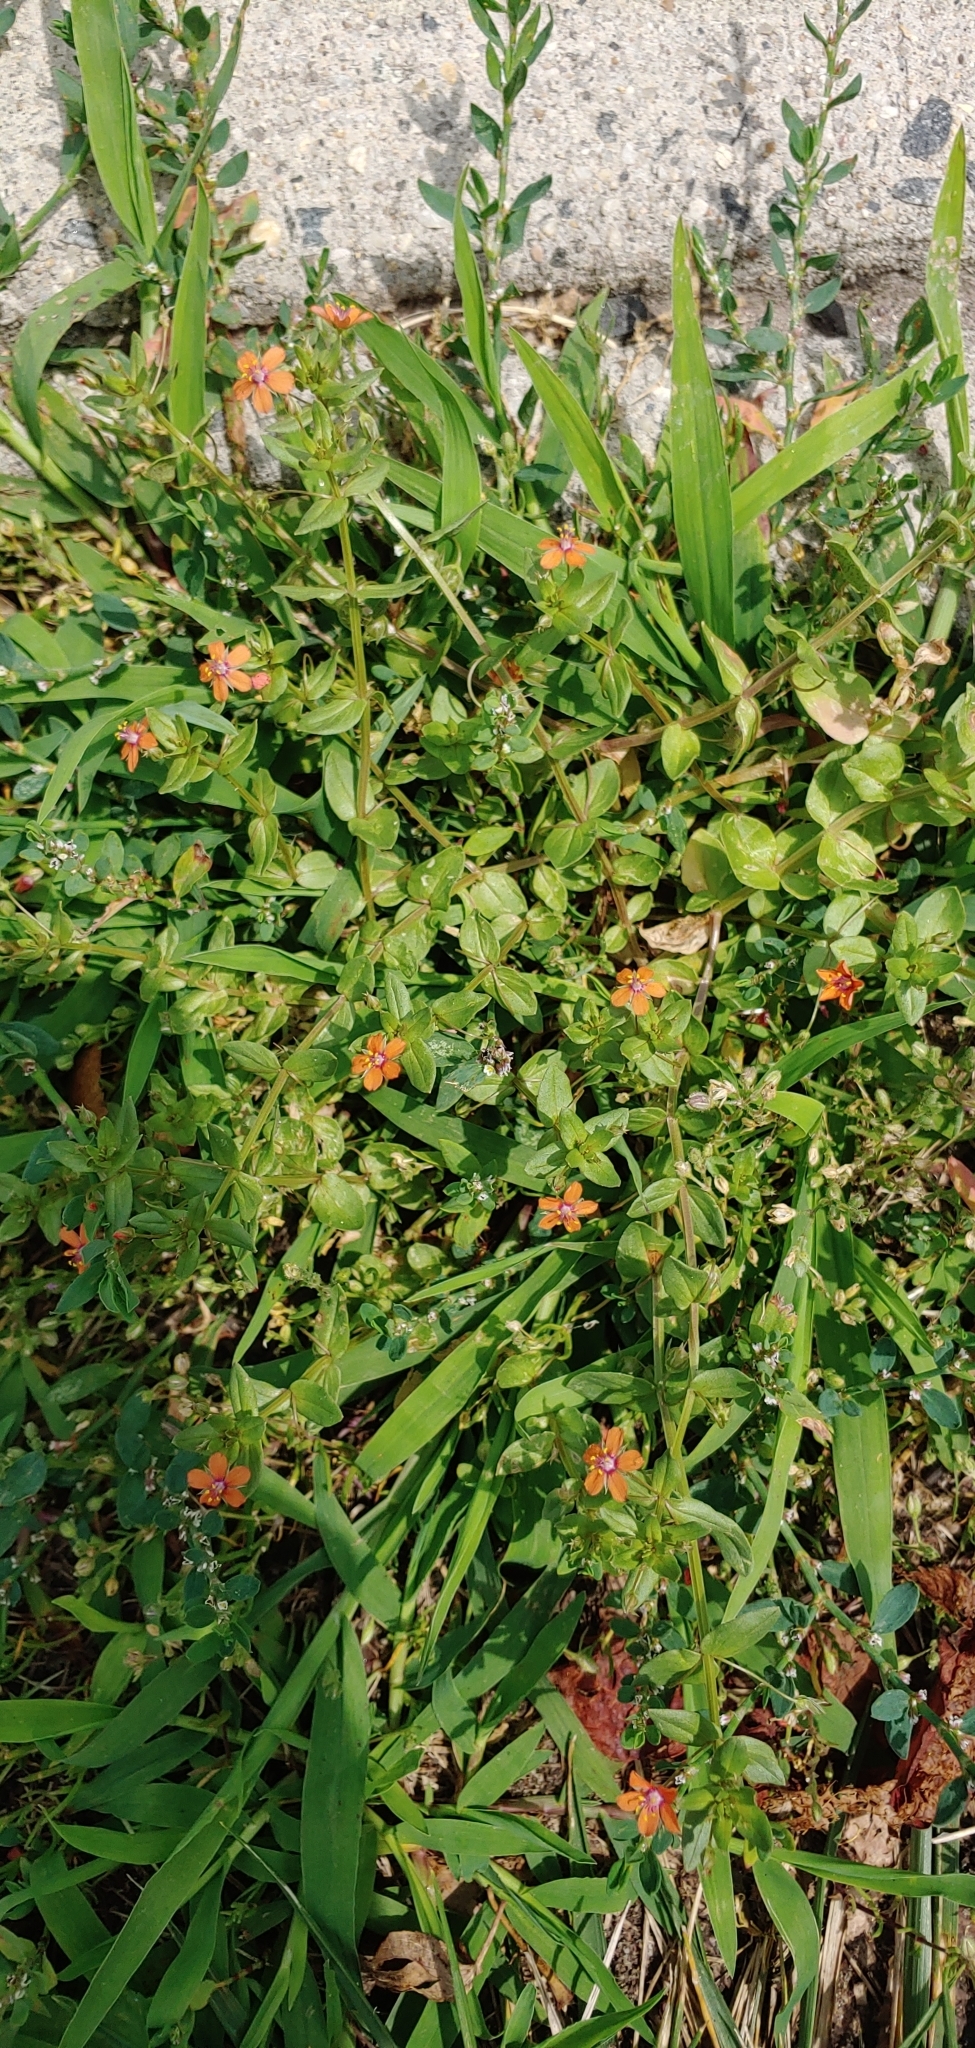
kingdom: Plantae
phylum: Tracheophyta
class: Magnoliopsida
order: Ericales
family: Primulaceae
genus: Lysimachia
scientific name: Lysimachia arvensis
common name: Scarlet pimpernel
